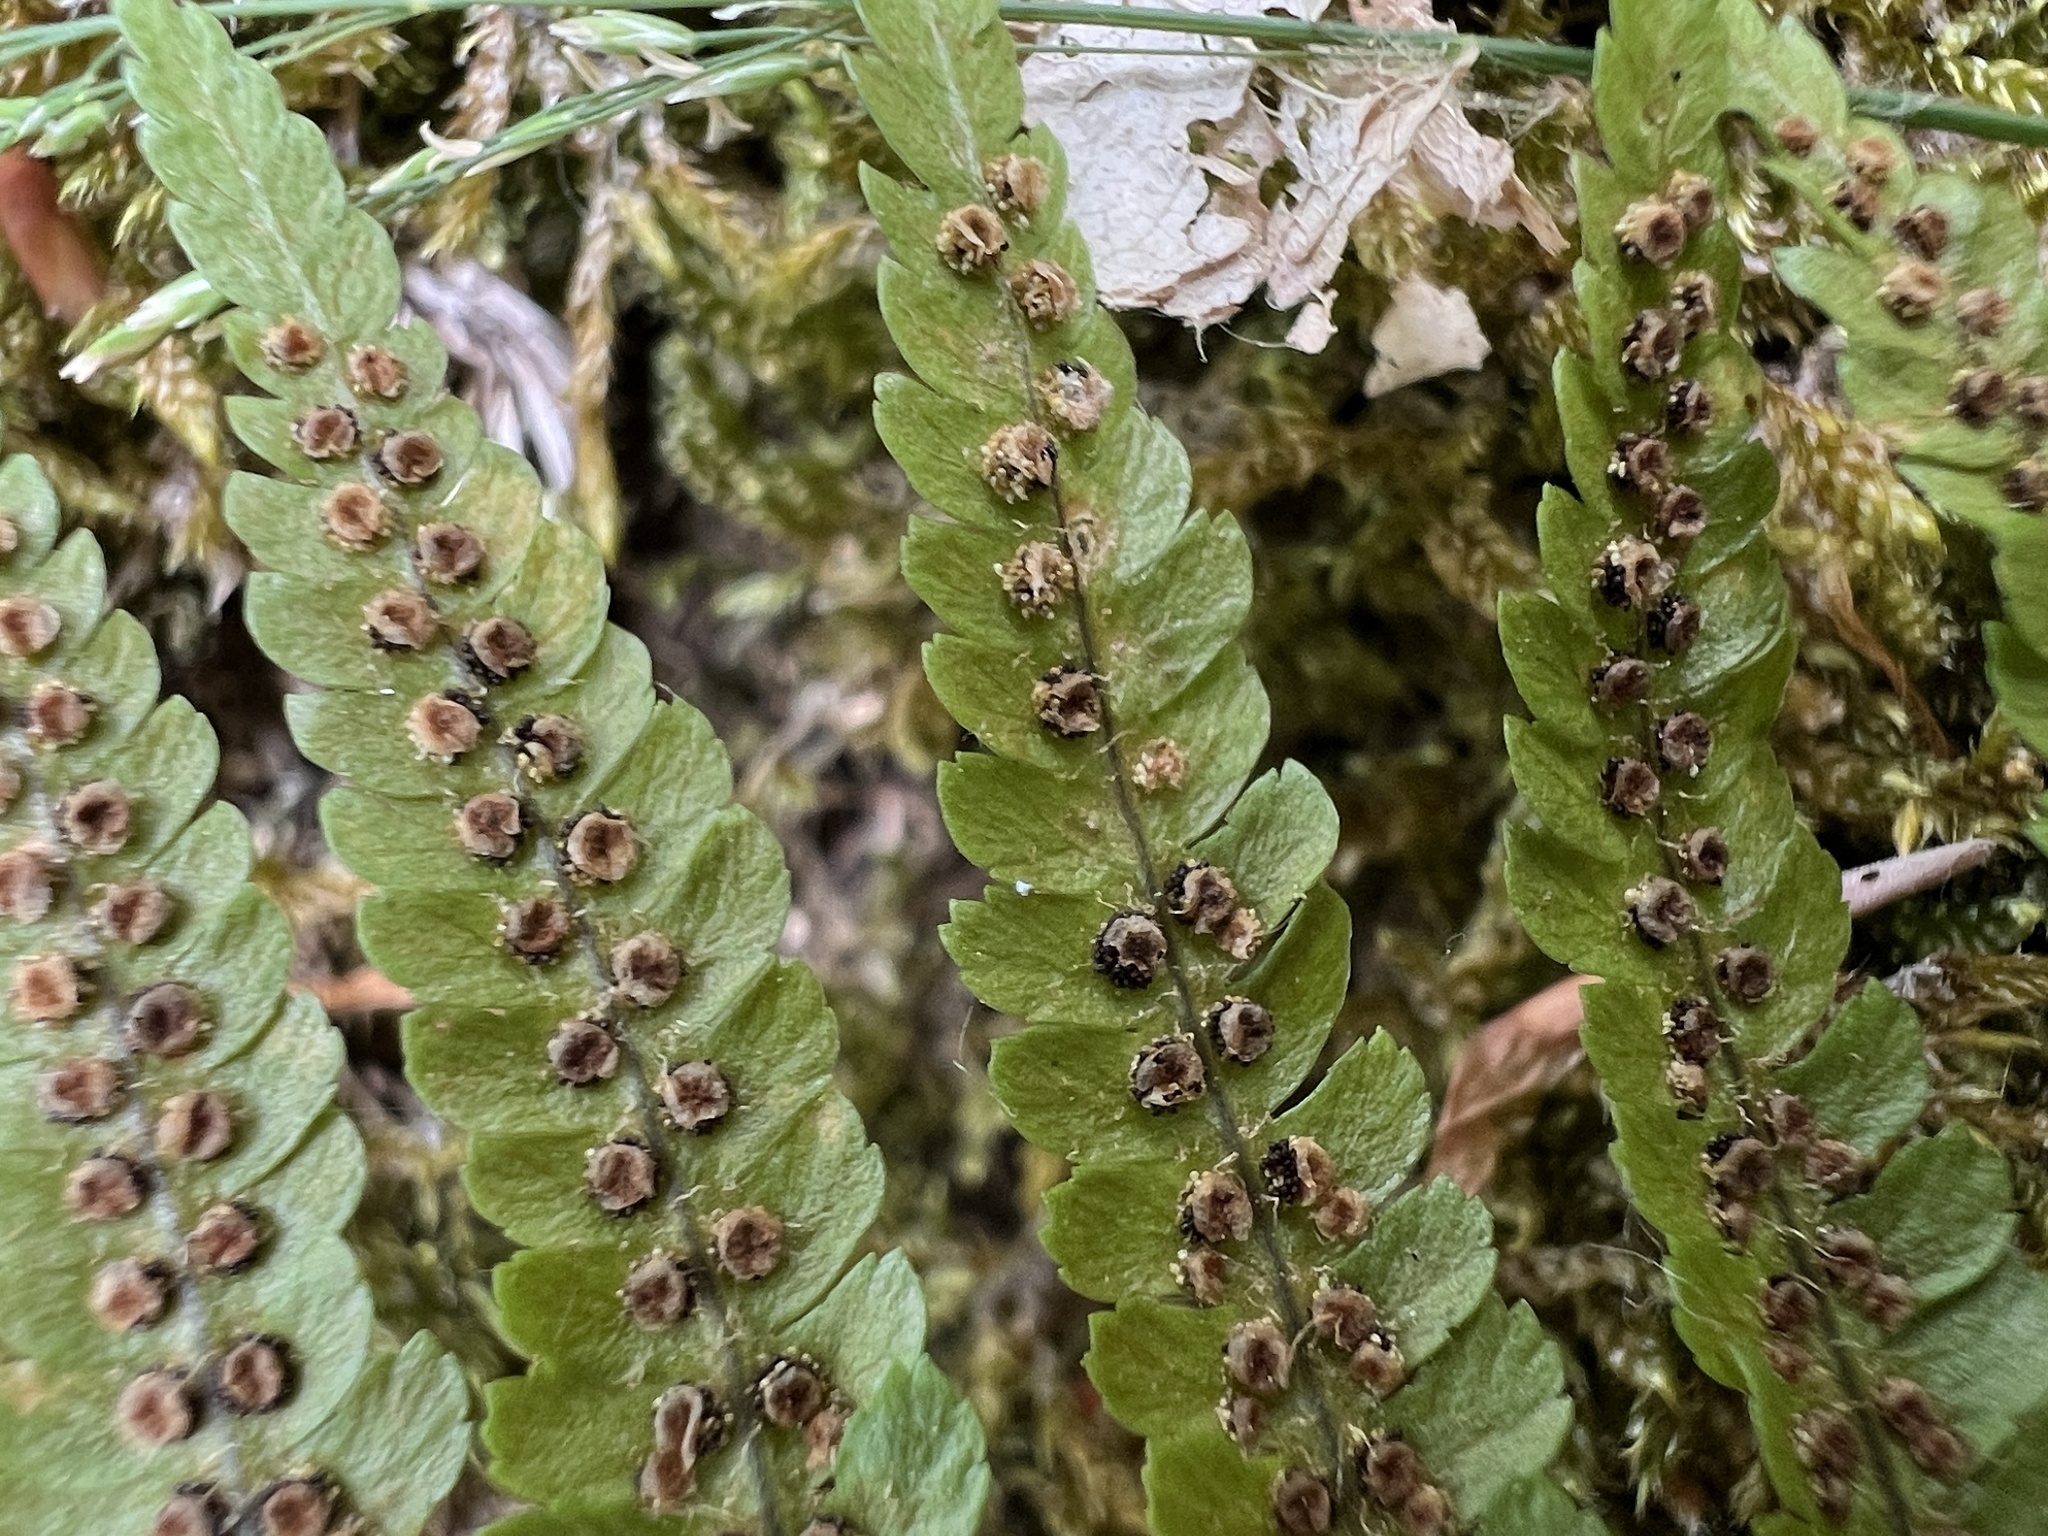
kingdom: Plantae
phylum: Tracheophyta
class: Polypodiopsida
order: Polypodiales
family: Dryopteridaceae
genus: Dryopteris
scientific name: Dryopteris filix-mas
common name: Male fern
